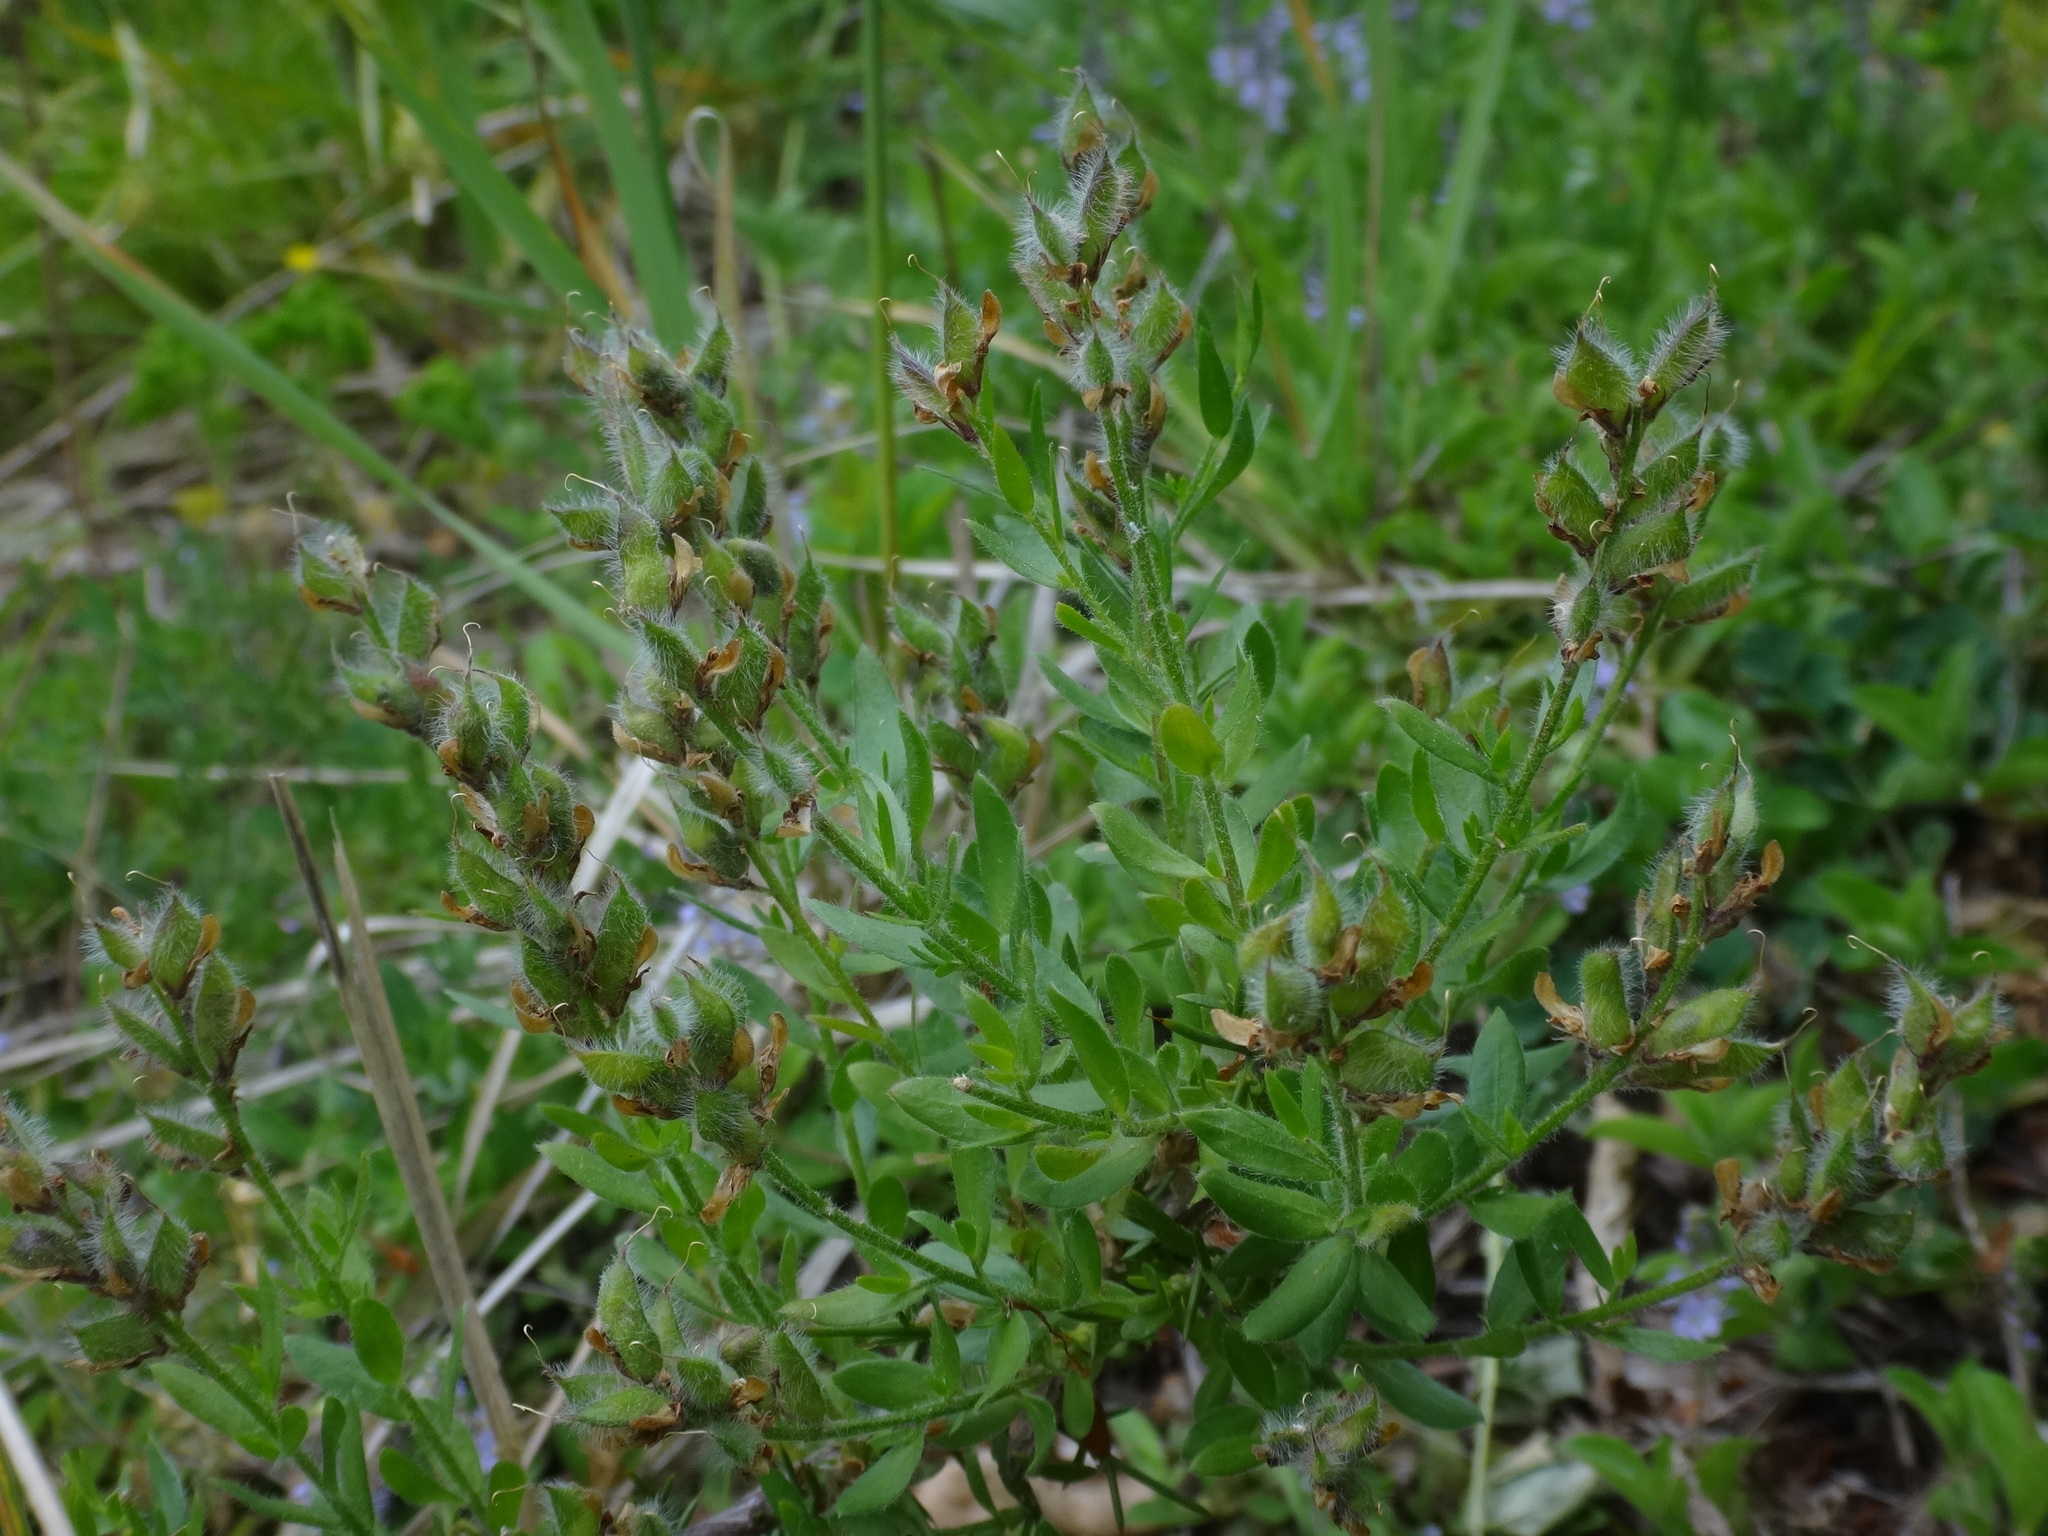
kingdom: Plantae
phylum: Tracheophyta
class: Magnoliopsida
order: Fabales
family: Fabaceae
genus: Genista
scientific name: Genista germanica
